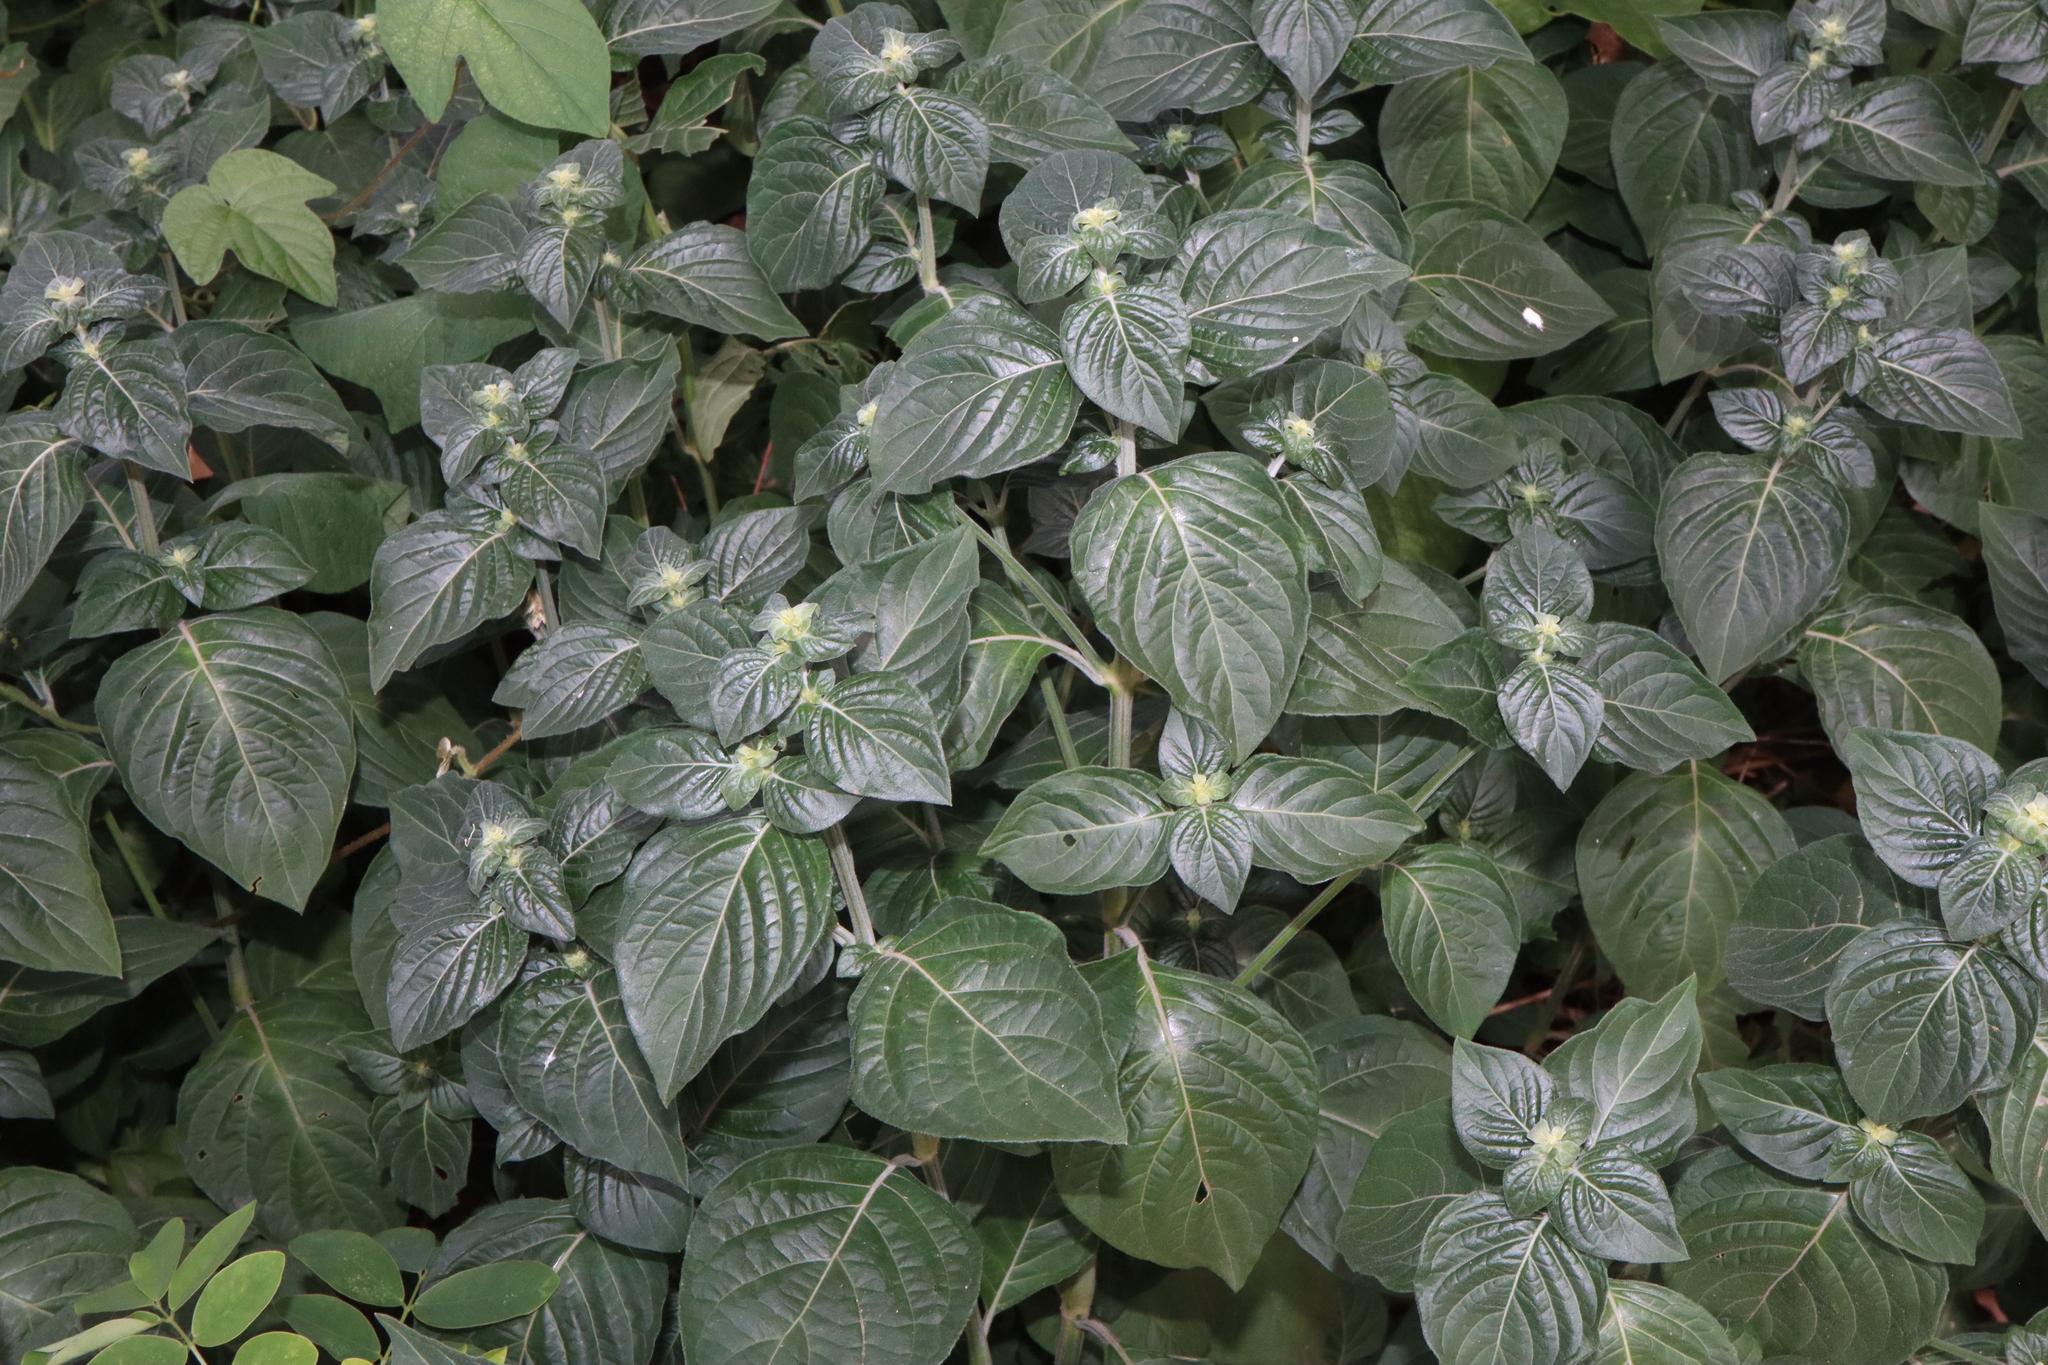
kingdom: Plantae
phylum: Tracheophyta
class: Magnoliopsida
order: Lamiales
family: Acanthaceae
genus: Hypoestes
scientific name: Hypoestes aristata
